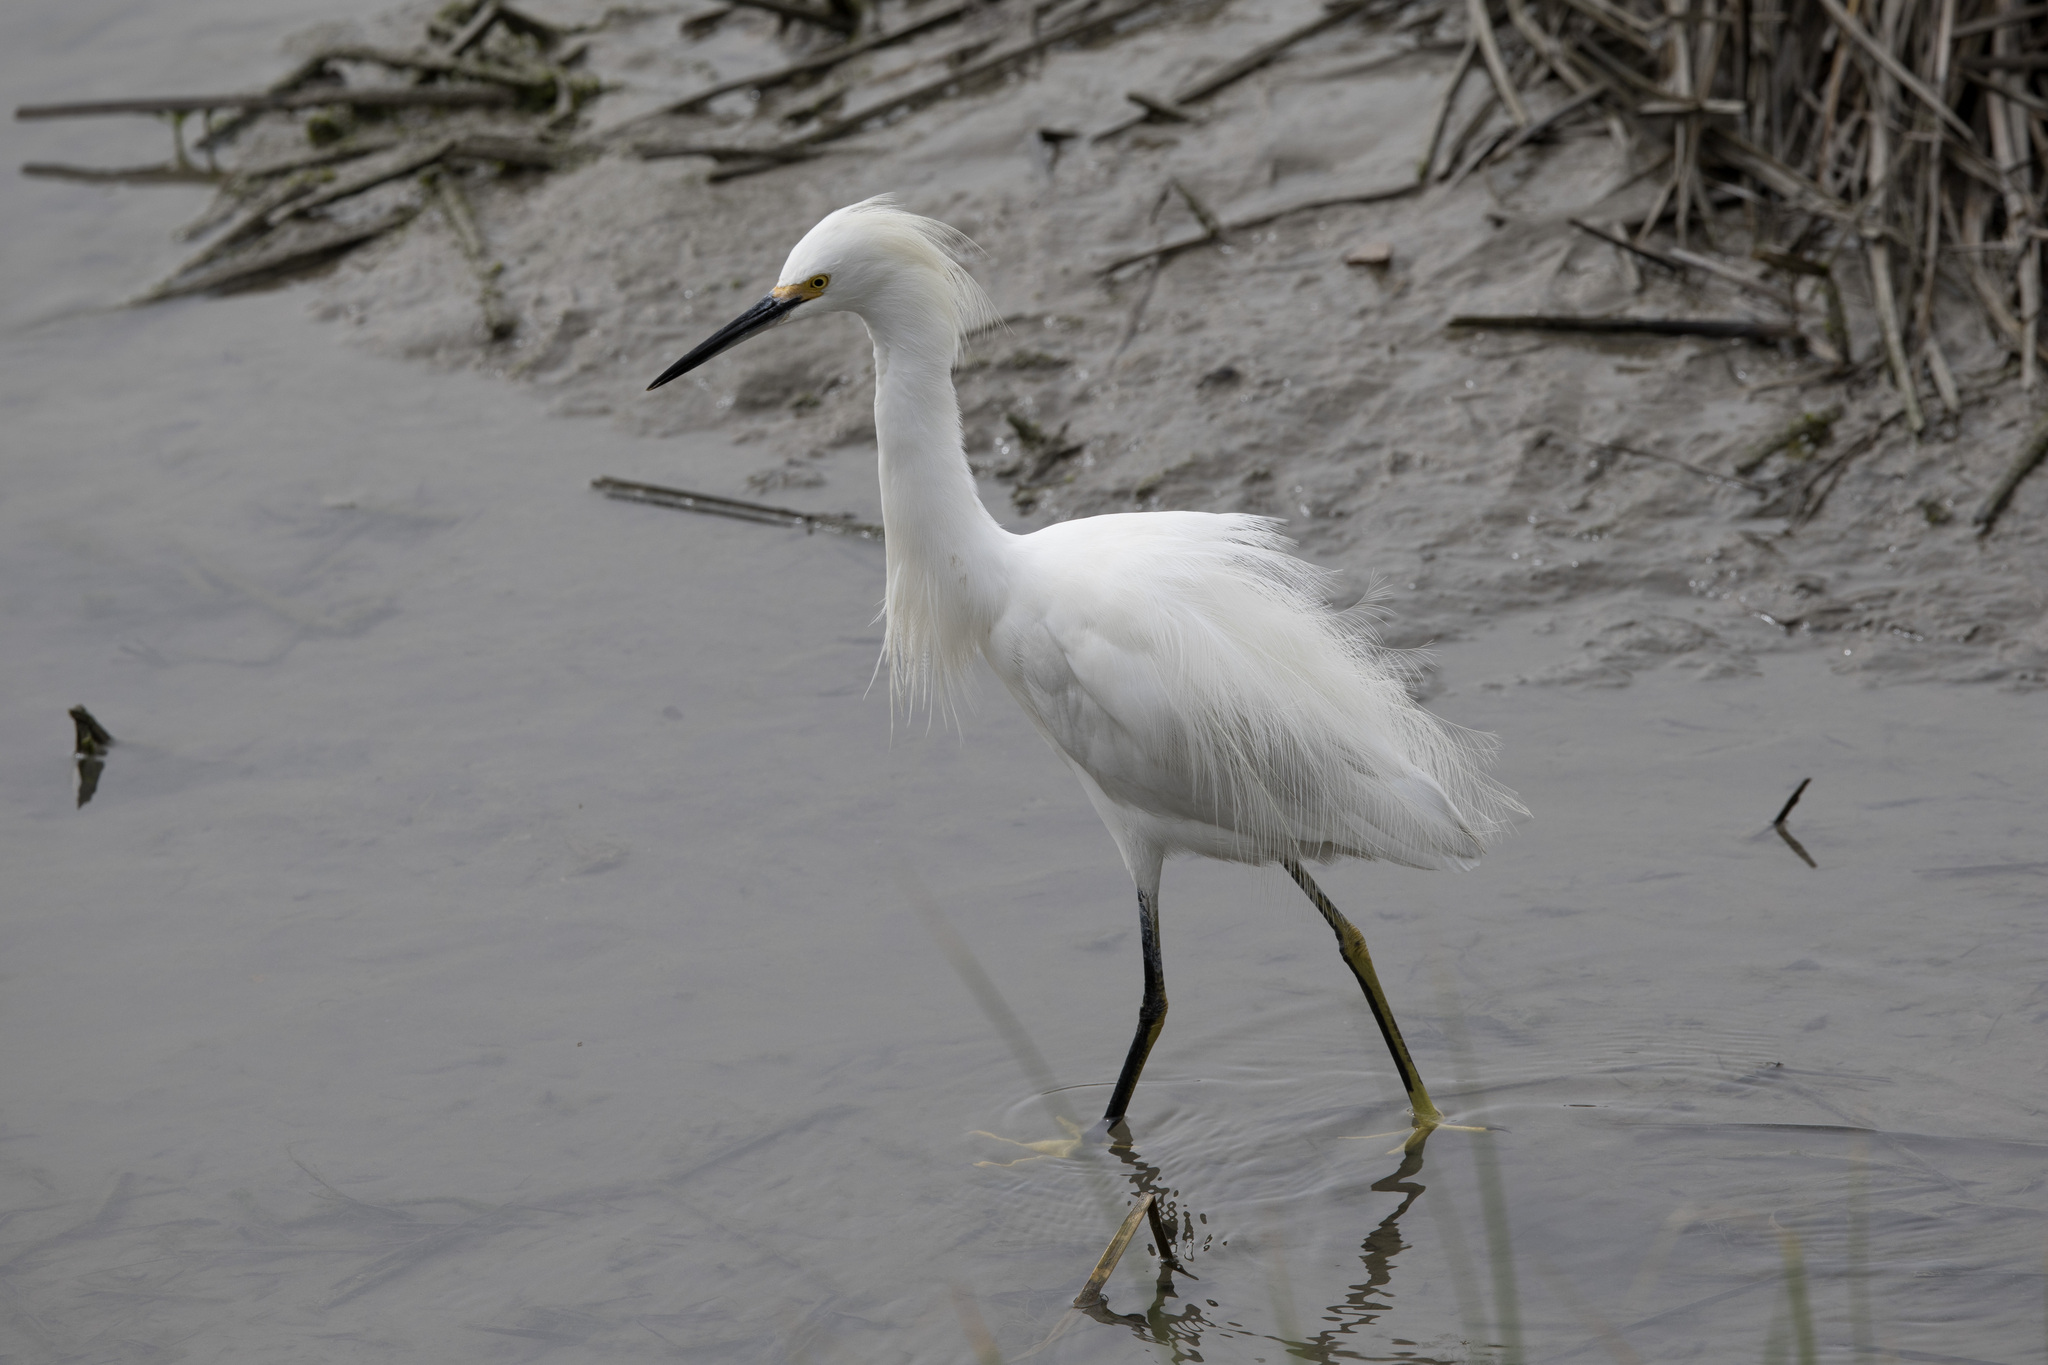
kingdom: Animalia
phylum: Chordata
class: Aves
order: Pelecaniformes
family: Ardeidae
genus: Egretta
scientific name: Egretta thula
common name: Snowy egret
